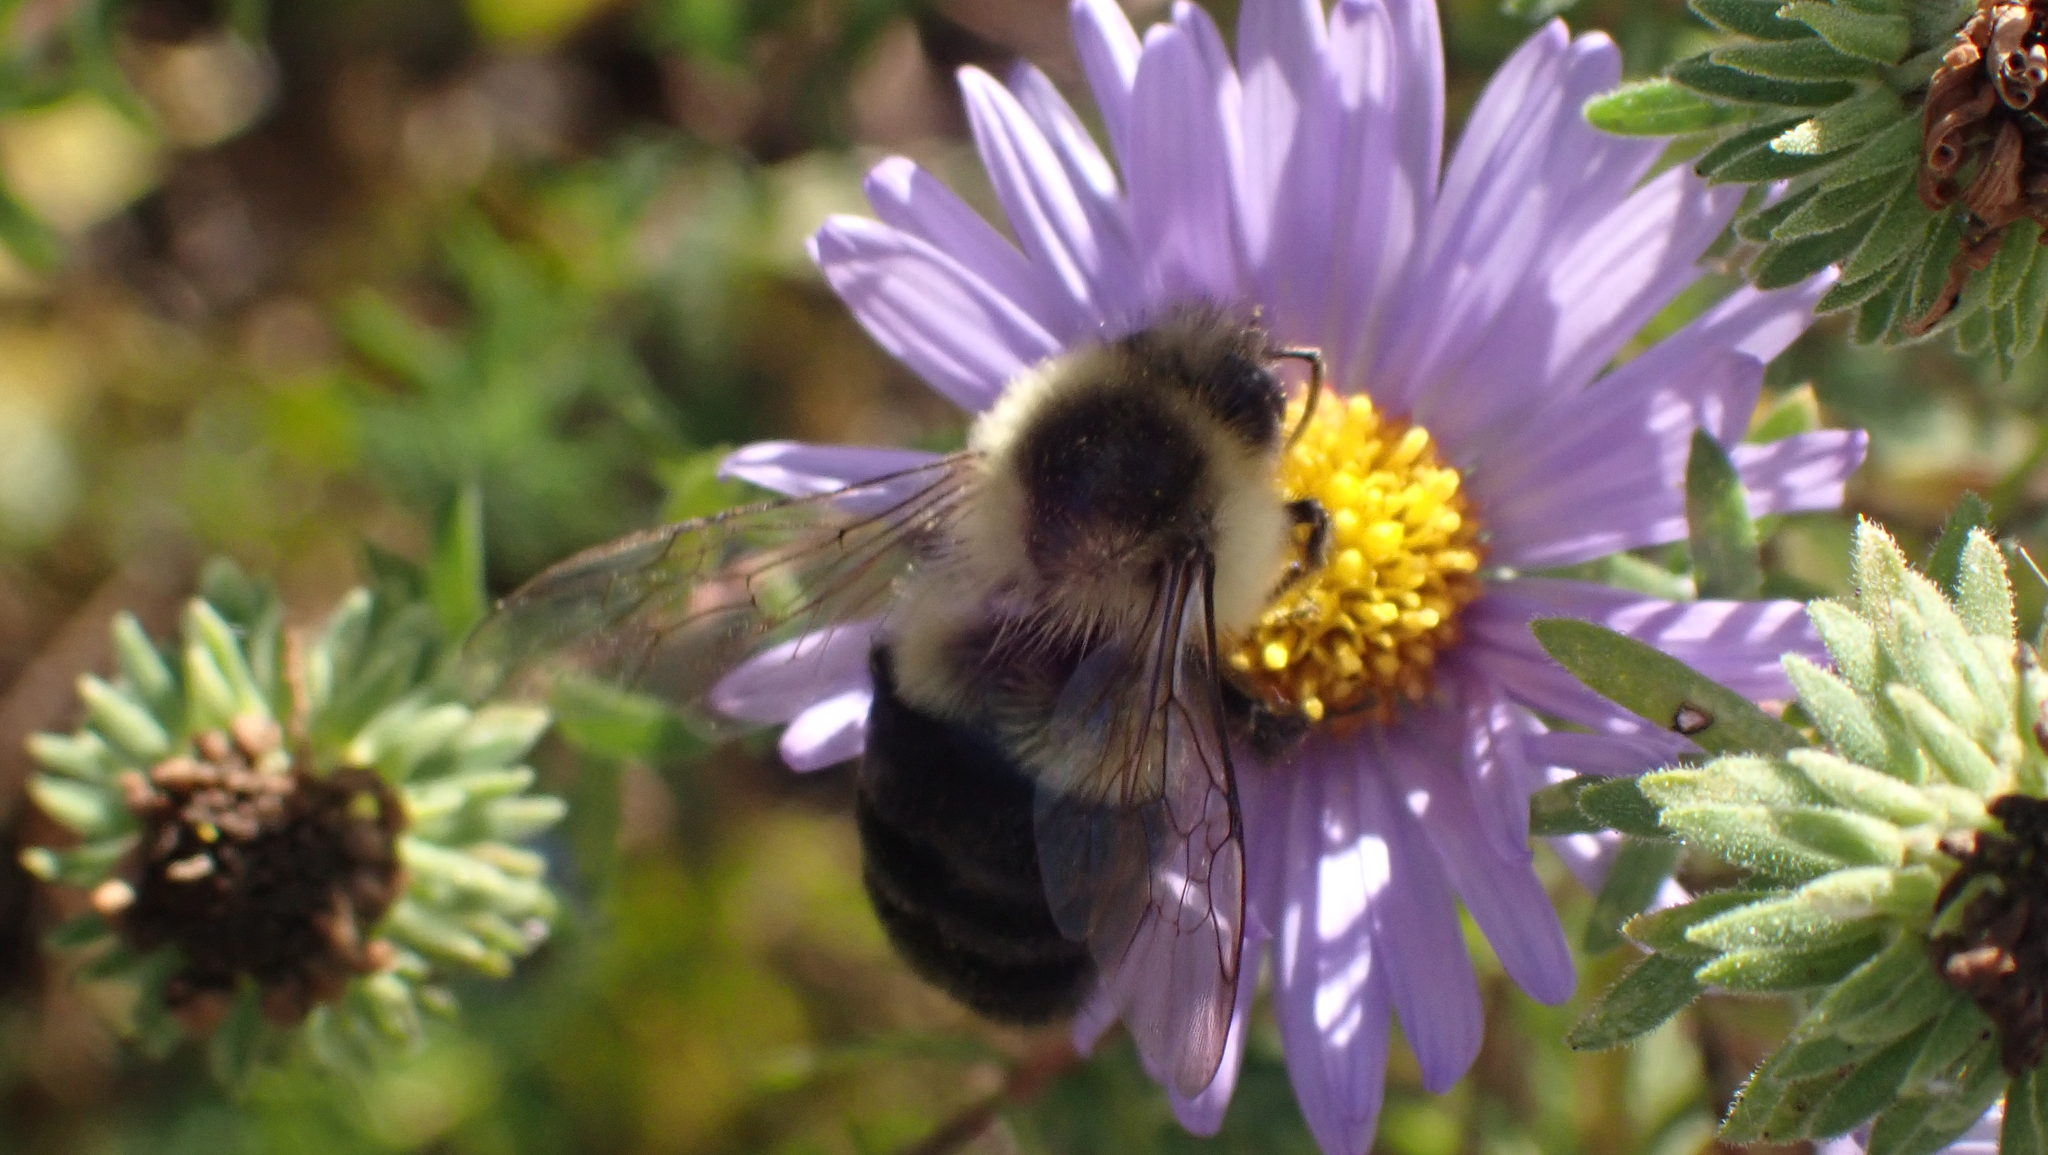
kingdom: Animalia
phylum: Arthropoda
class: Insecta
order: Hymenoptera
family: Apidae
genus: Bombus
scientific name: Bombus impatiens
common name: Common eastern bumble bee
